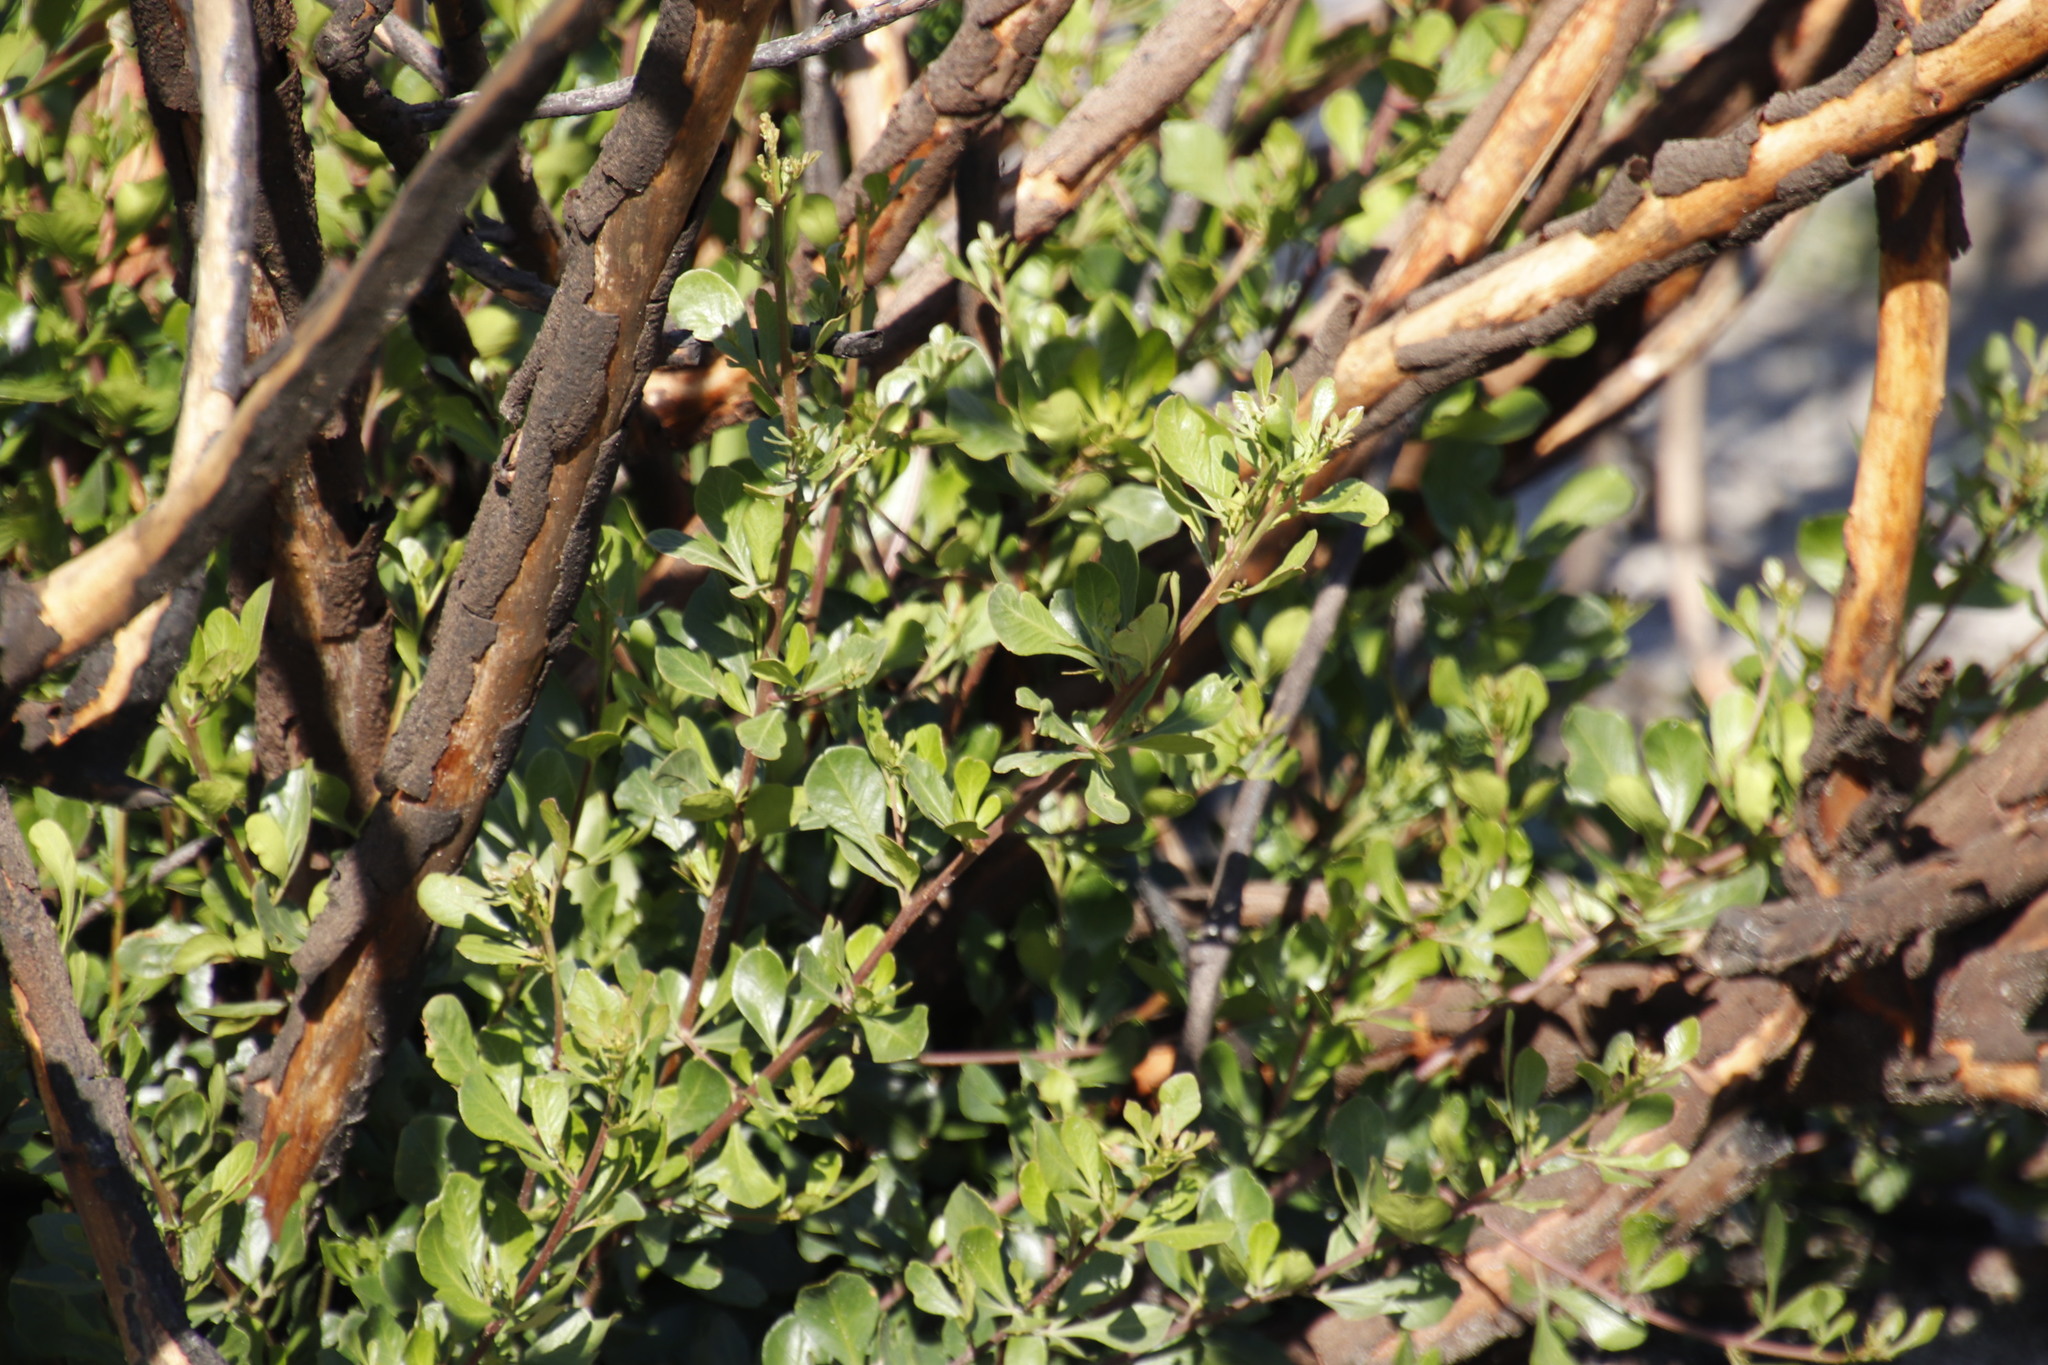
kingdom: Plantae
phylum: Tracheophyta
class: Magnoliopsida
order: Sapindales
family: Anacardiaceae
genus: Searsia
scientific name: Searsia lucida
